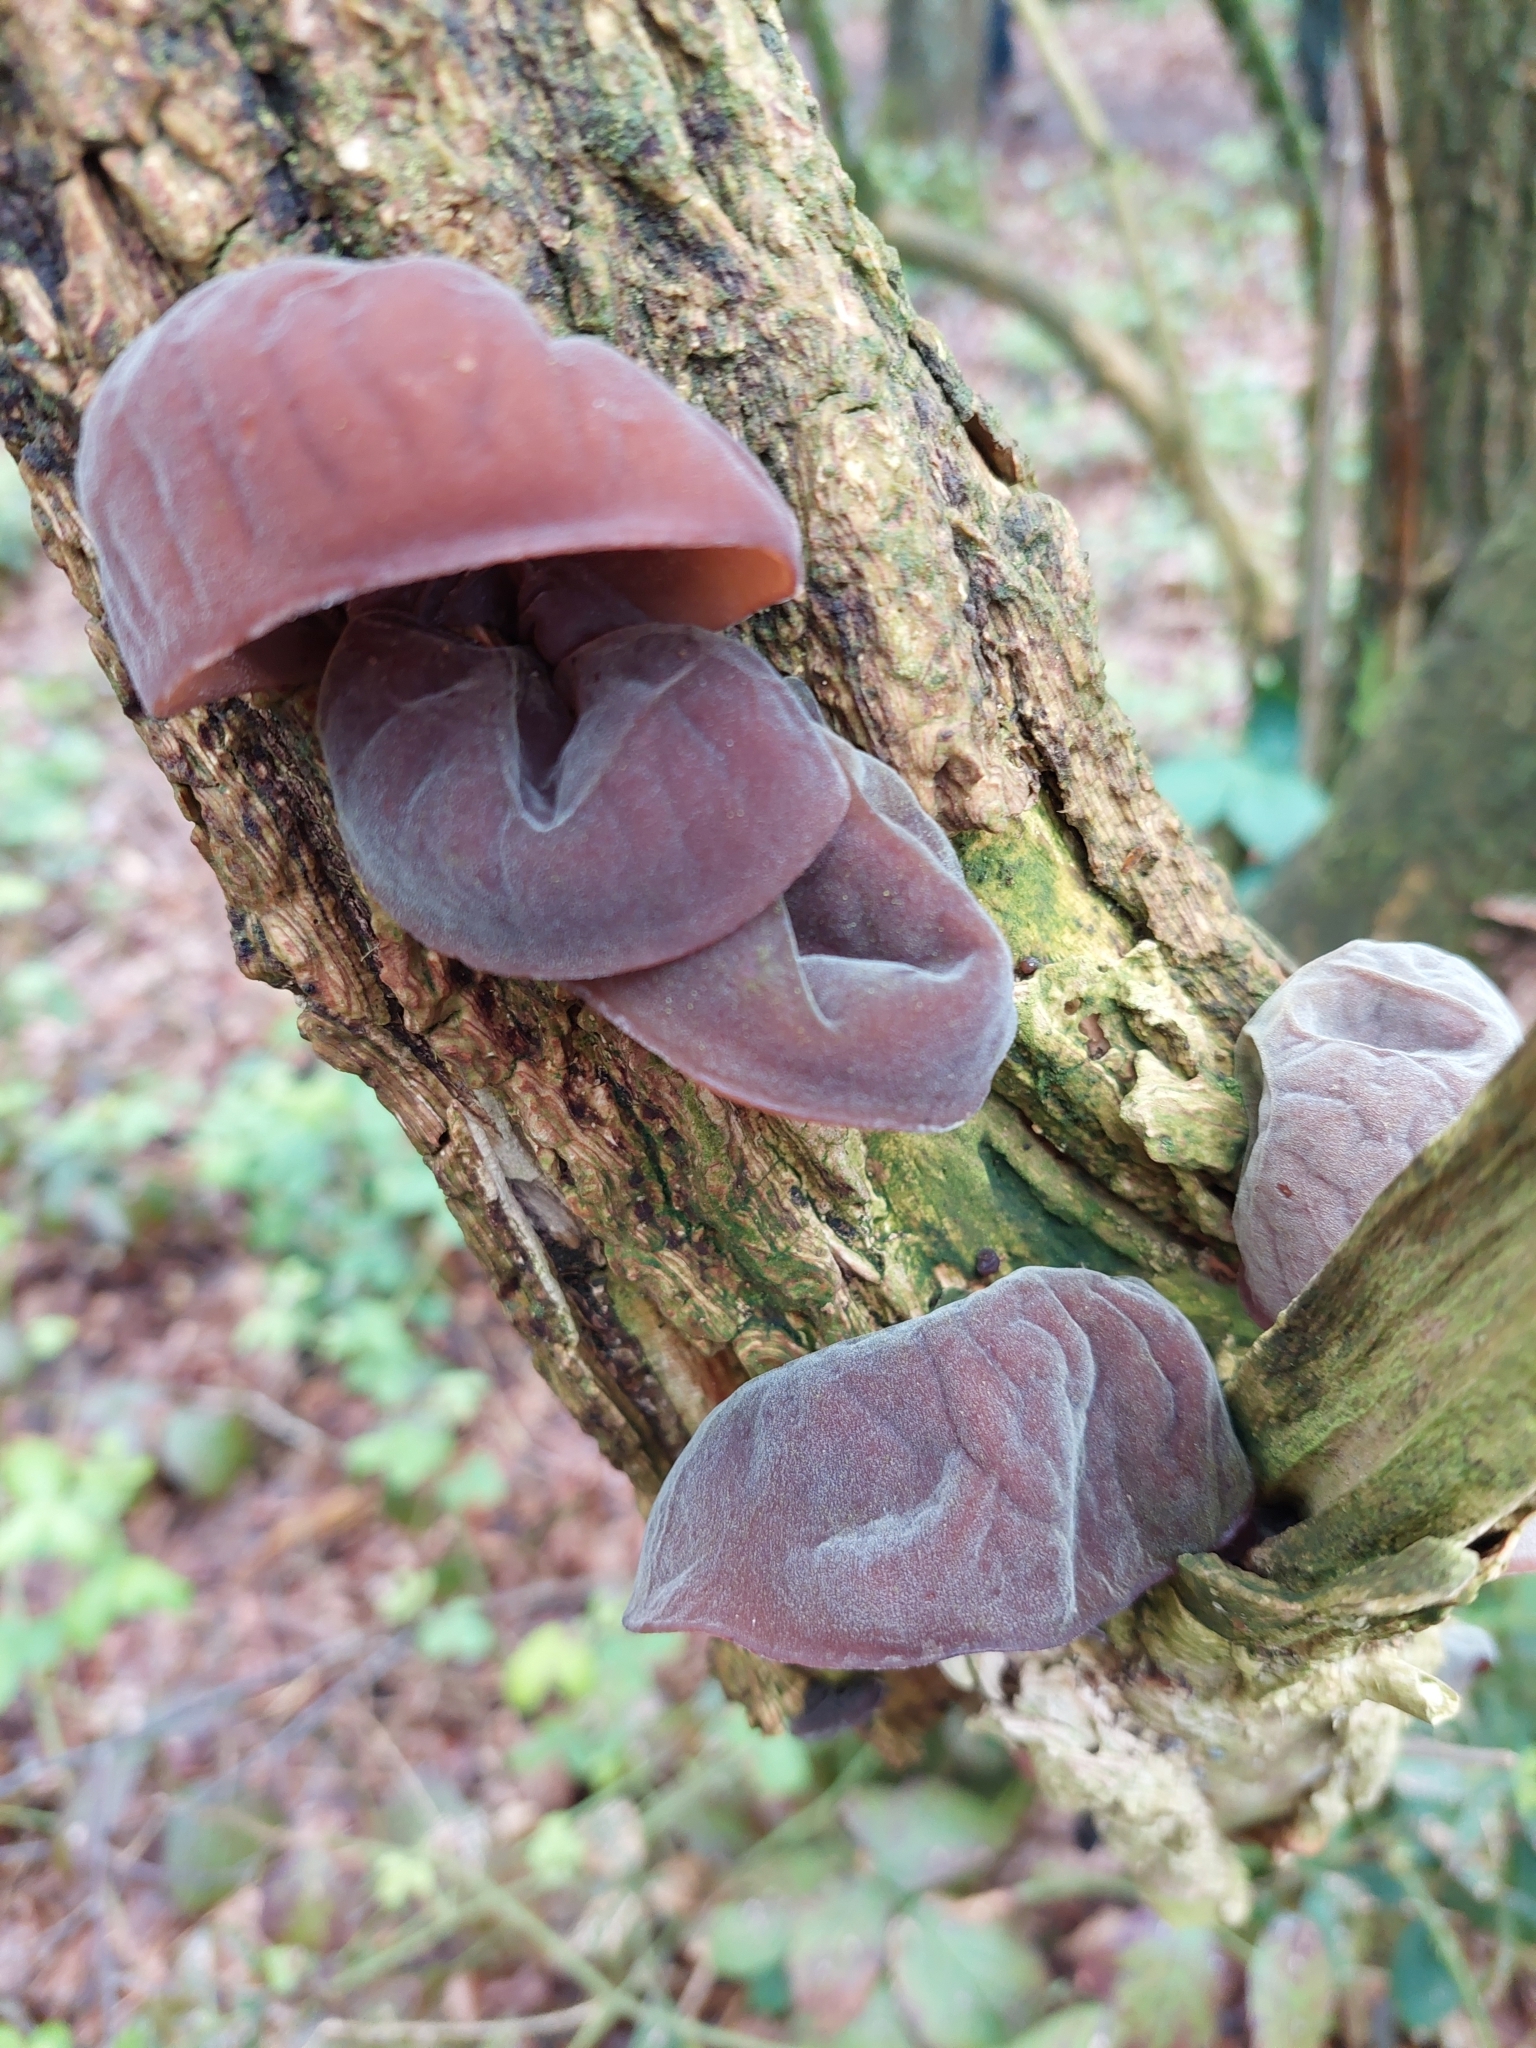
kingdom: Fungi
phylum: Basidiomycota
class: Agaricomycetes
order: Auriculariales
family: Auriculariaceae
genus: Auricularia
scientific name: Auricularia auricula-judae
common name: Jelly ear
